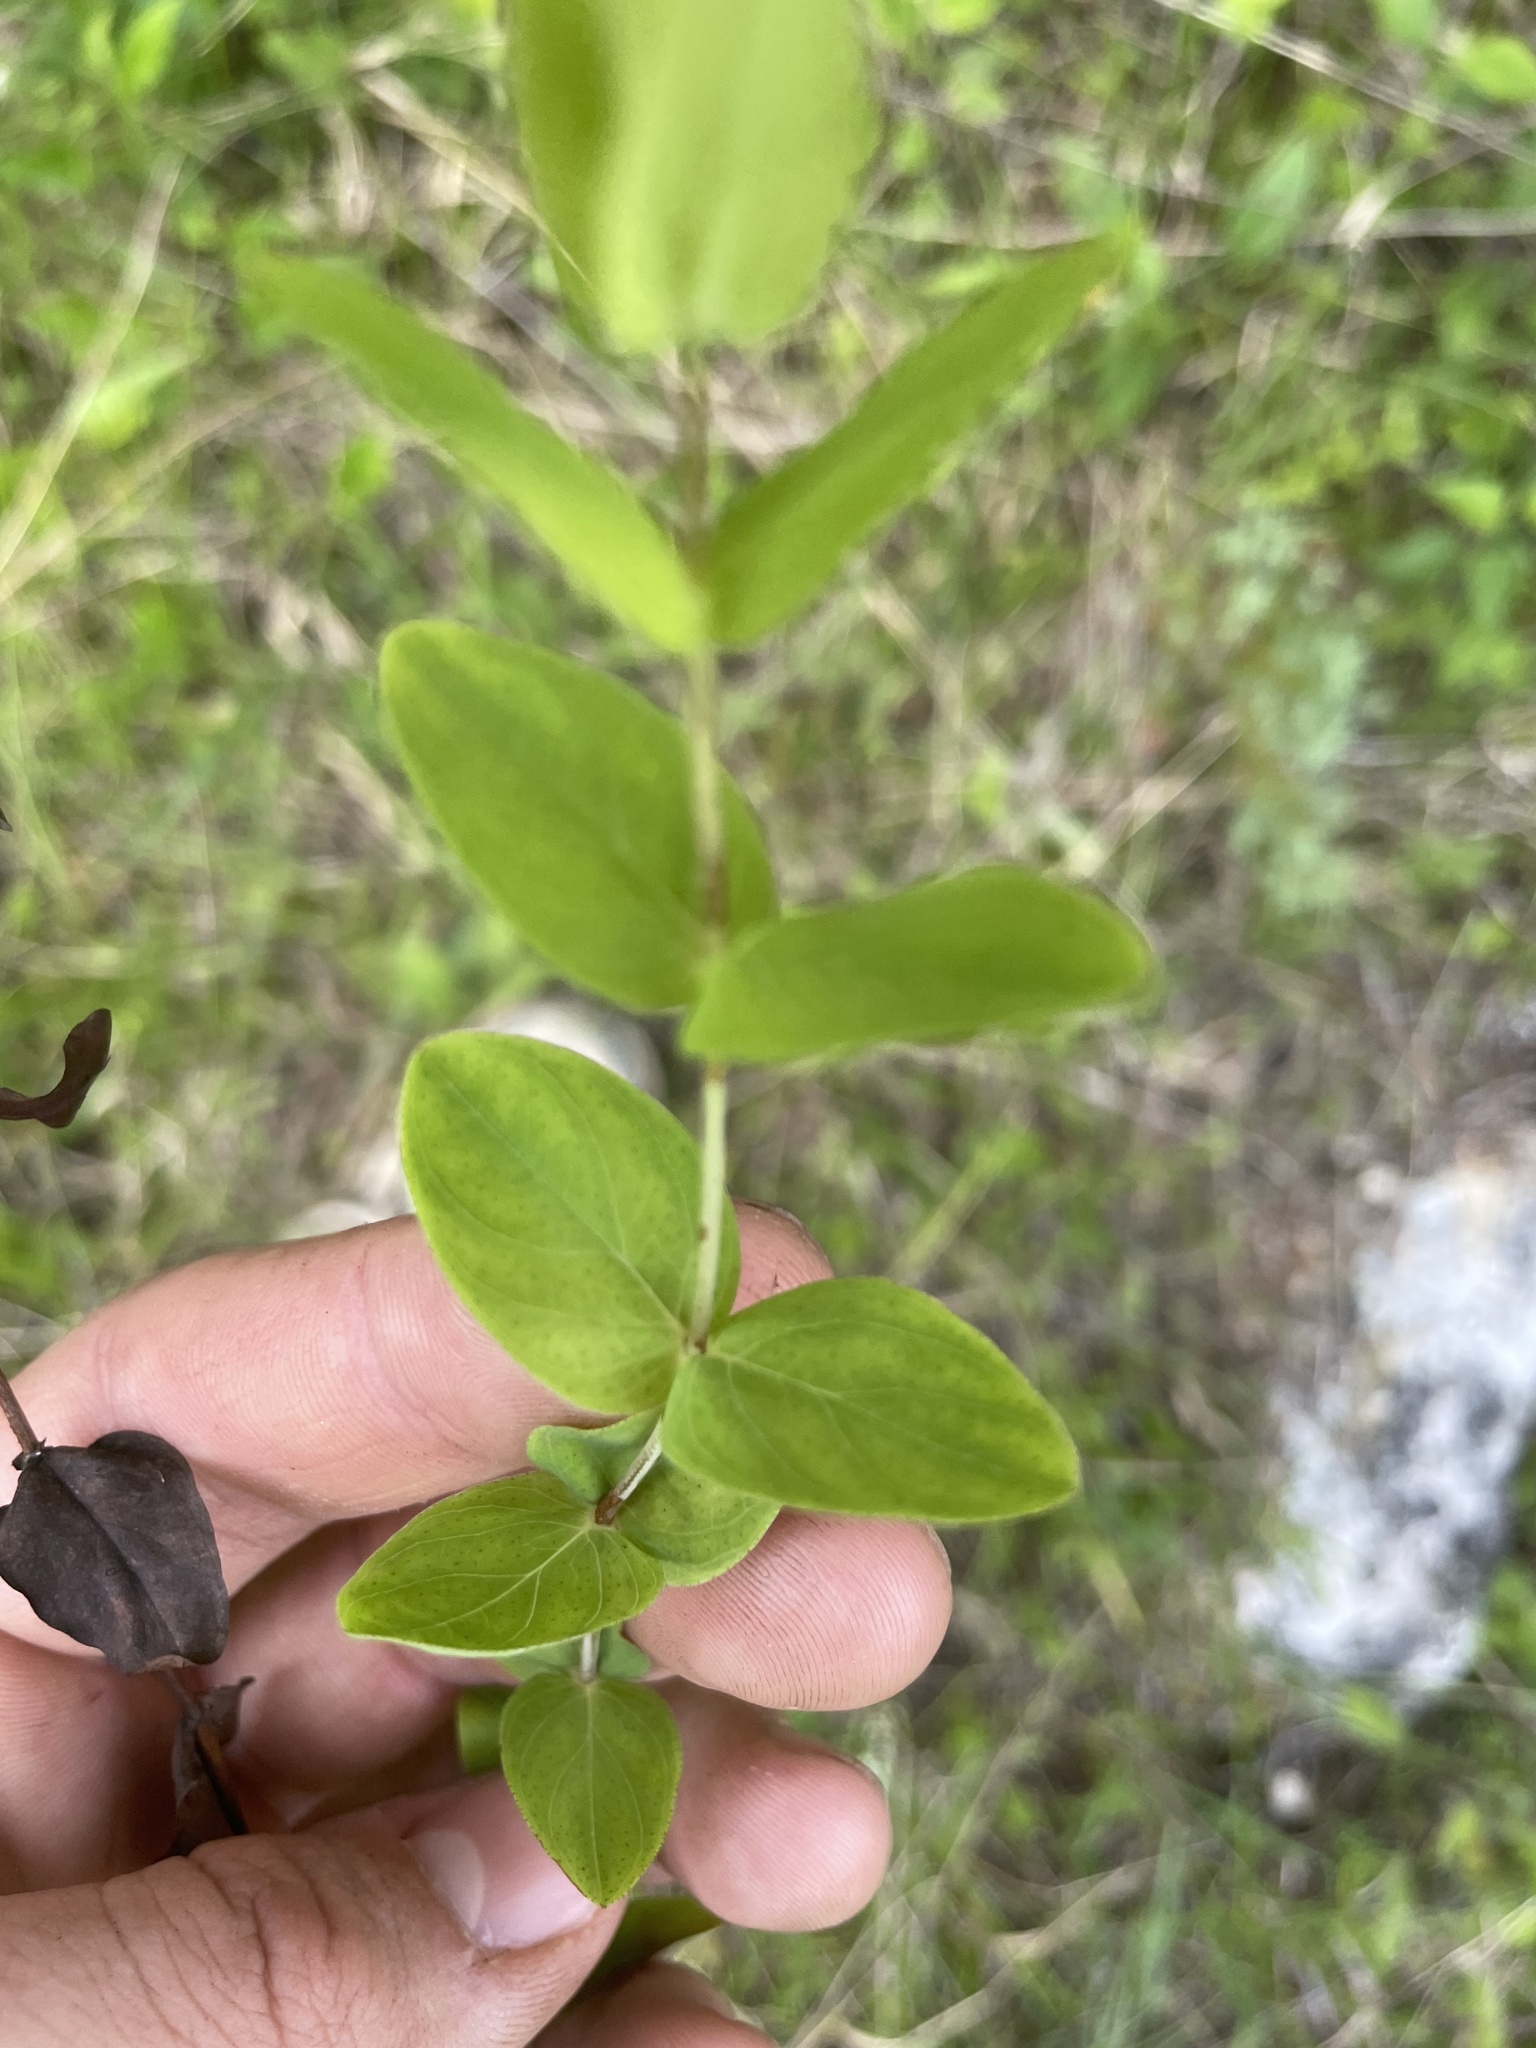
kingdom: Plantae
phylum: Tracheophyta
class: Magnoliopsida
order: Malpighiales
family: Hypericaceae
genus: Hypericum
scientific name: Hypericum pseudomaculatum
